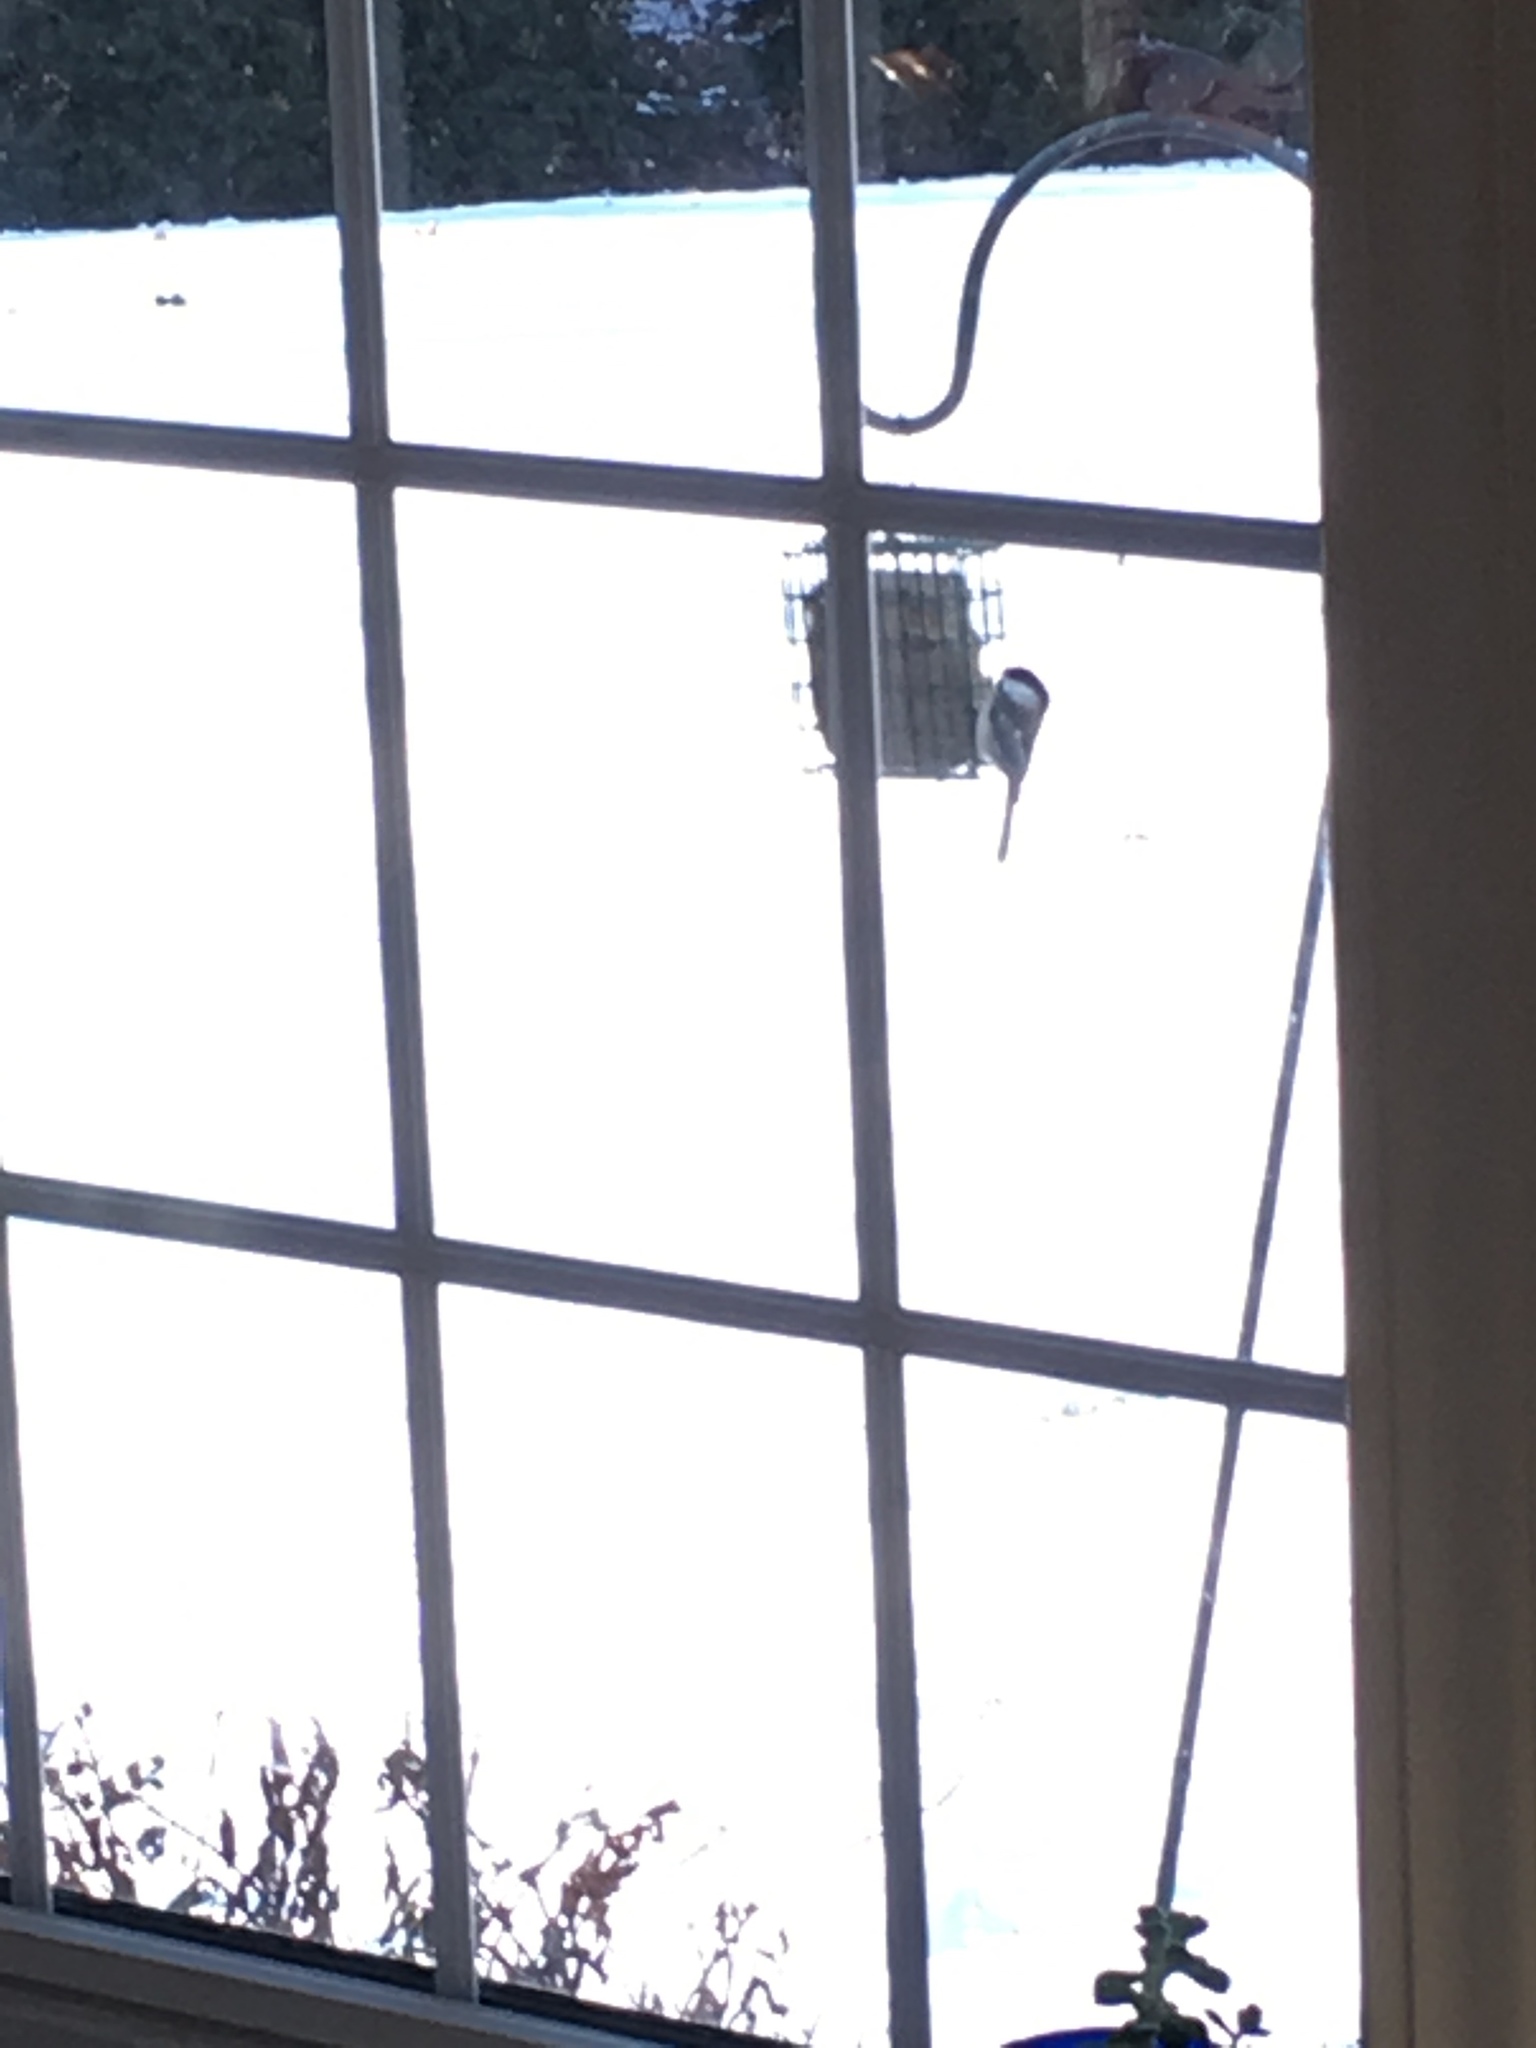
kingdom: Animalia
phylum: Chordata
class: Aves
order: Passeriformes
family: Paridae
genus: Poecile
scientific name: Poecile atricapillus
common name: Black-capped chickadee
